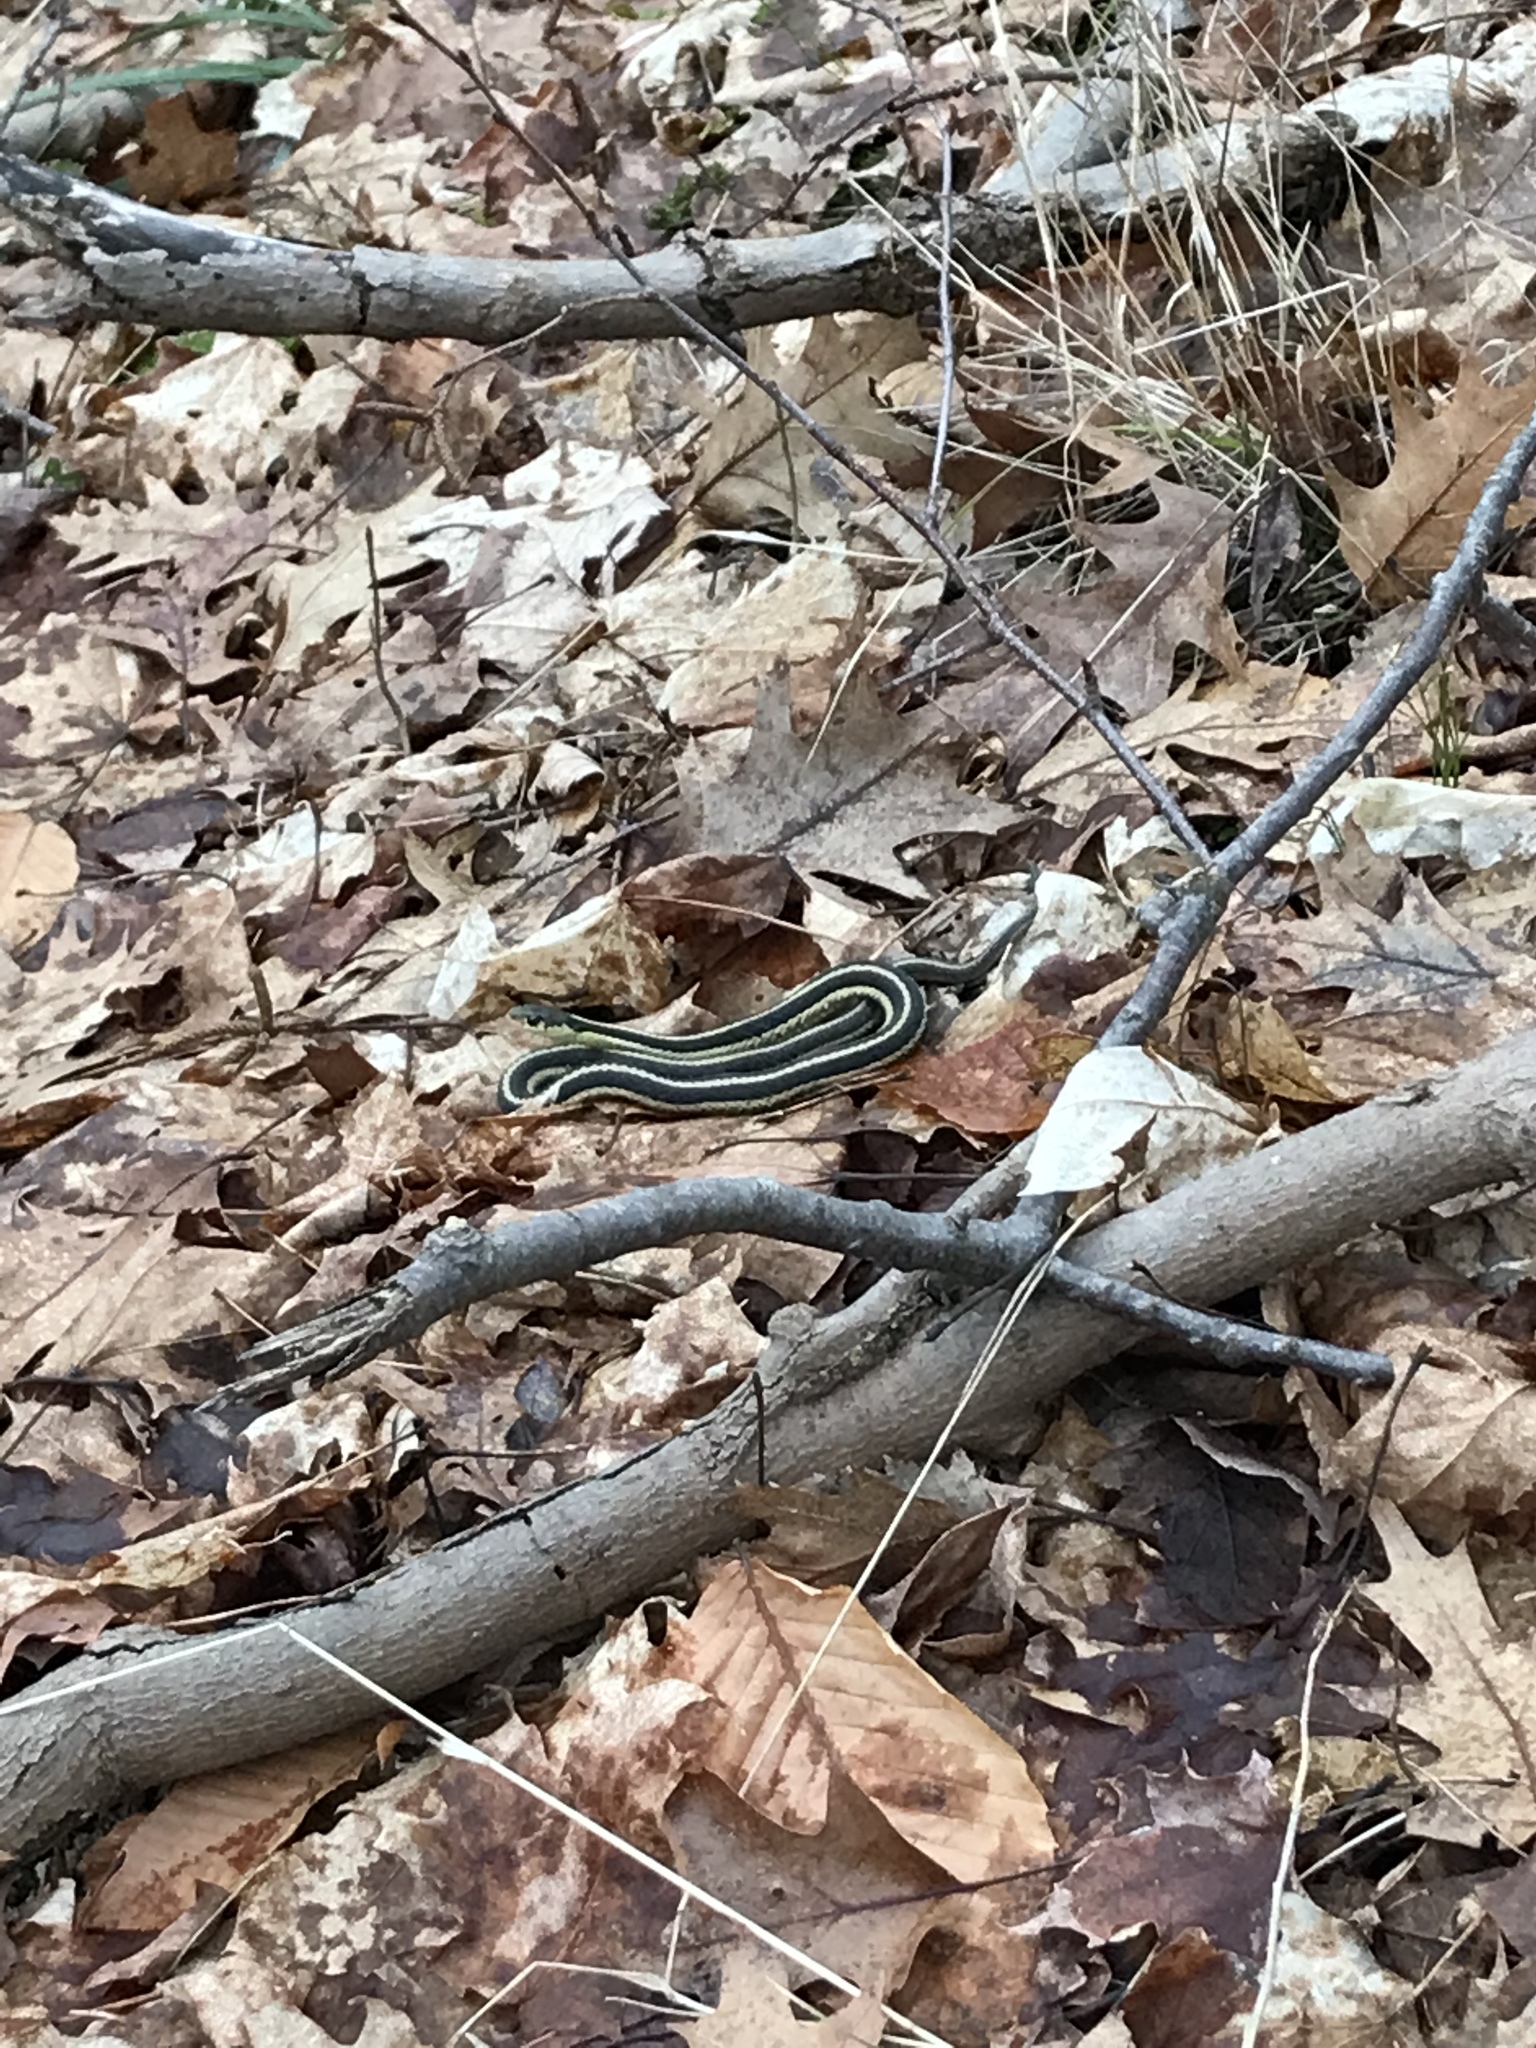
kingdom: Animalia
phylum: Chordata
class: Squamata
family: Colubridae
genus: Thamnophis
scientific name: Thamnophis sirtalis
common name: Common garter snake
